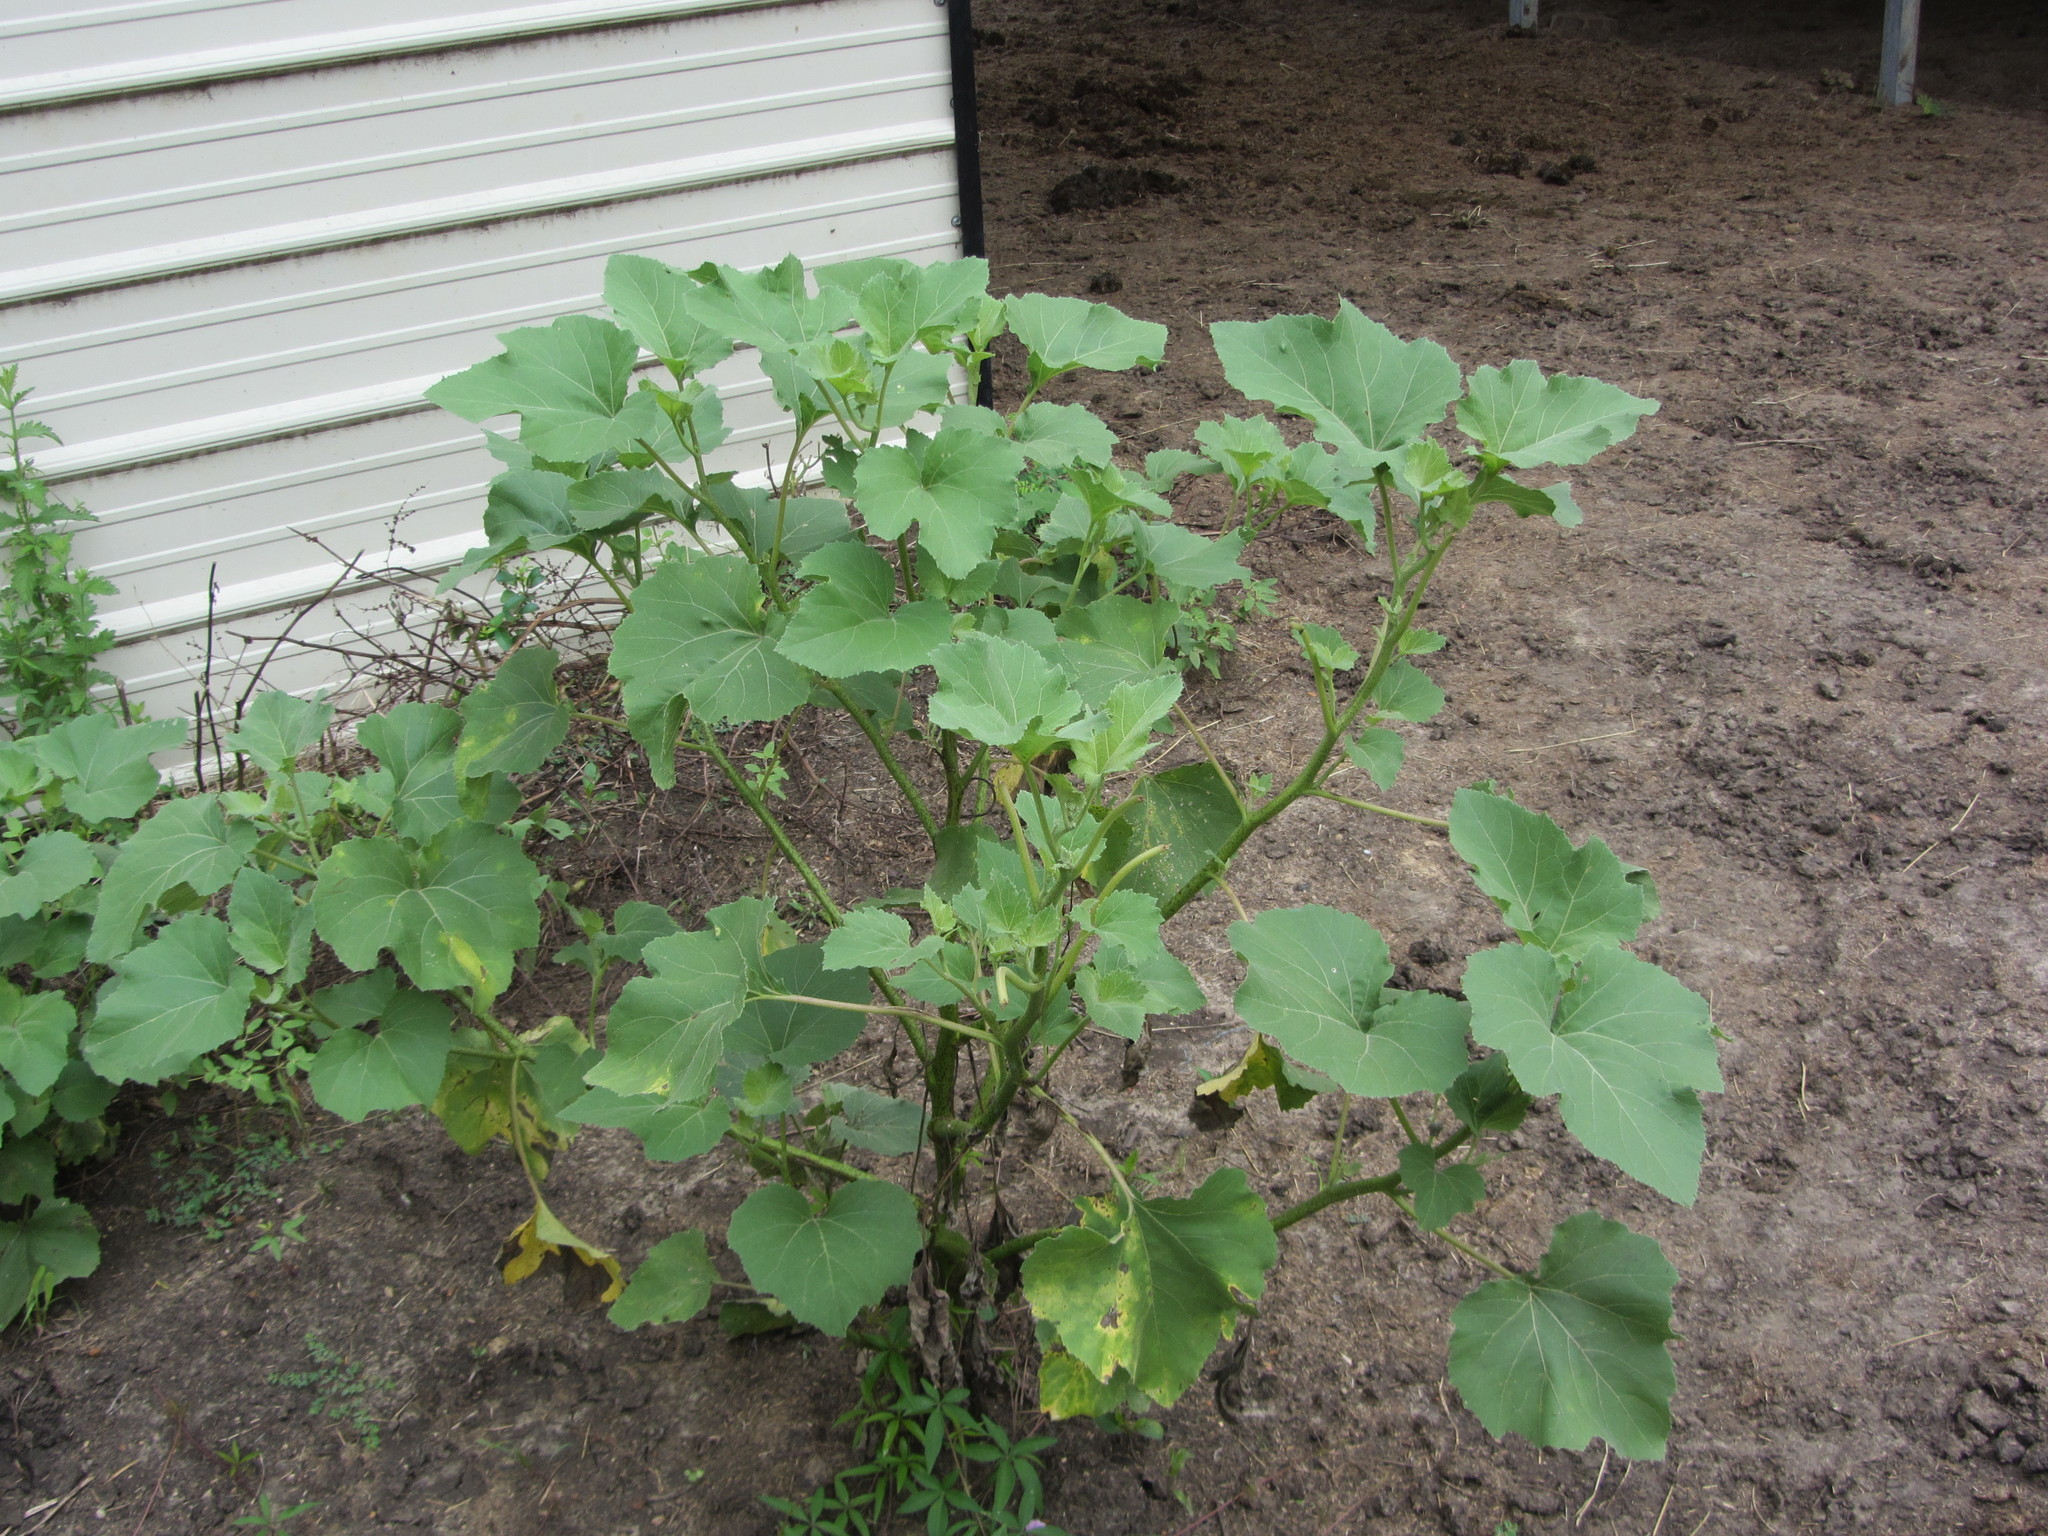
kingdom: Plantae
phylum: Tracheophyta
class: Magnoliopsida
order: Asterales
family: Asteraceae
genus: Xanthium
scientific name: Xanthium strumarium
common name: Rough cocklebur
